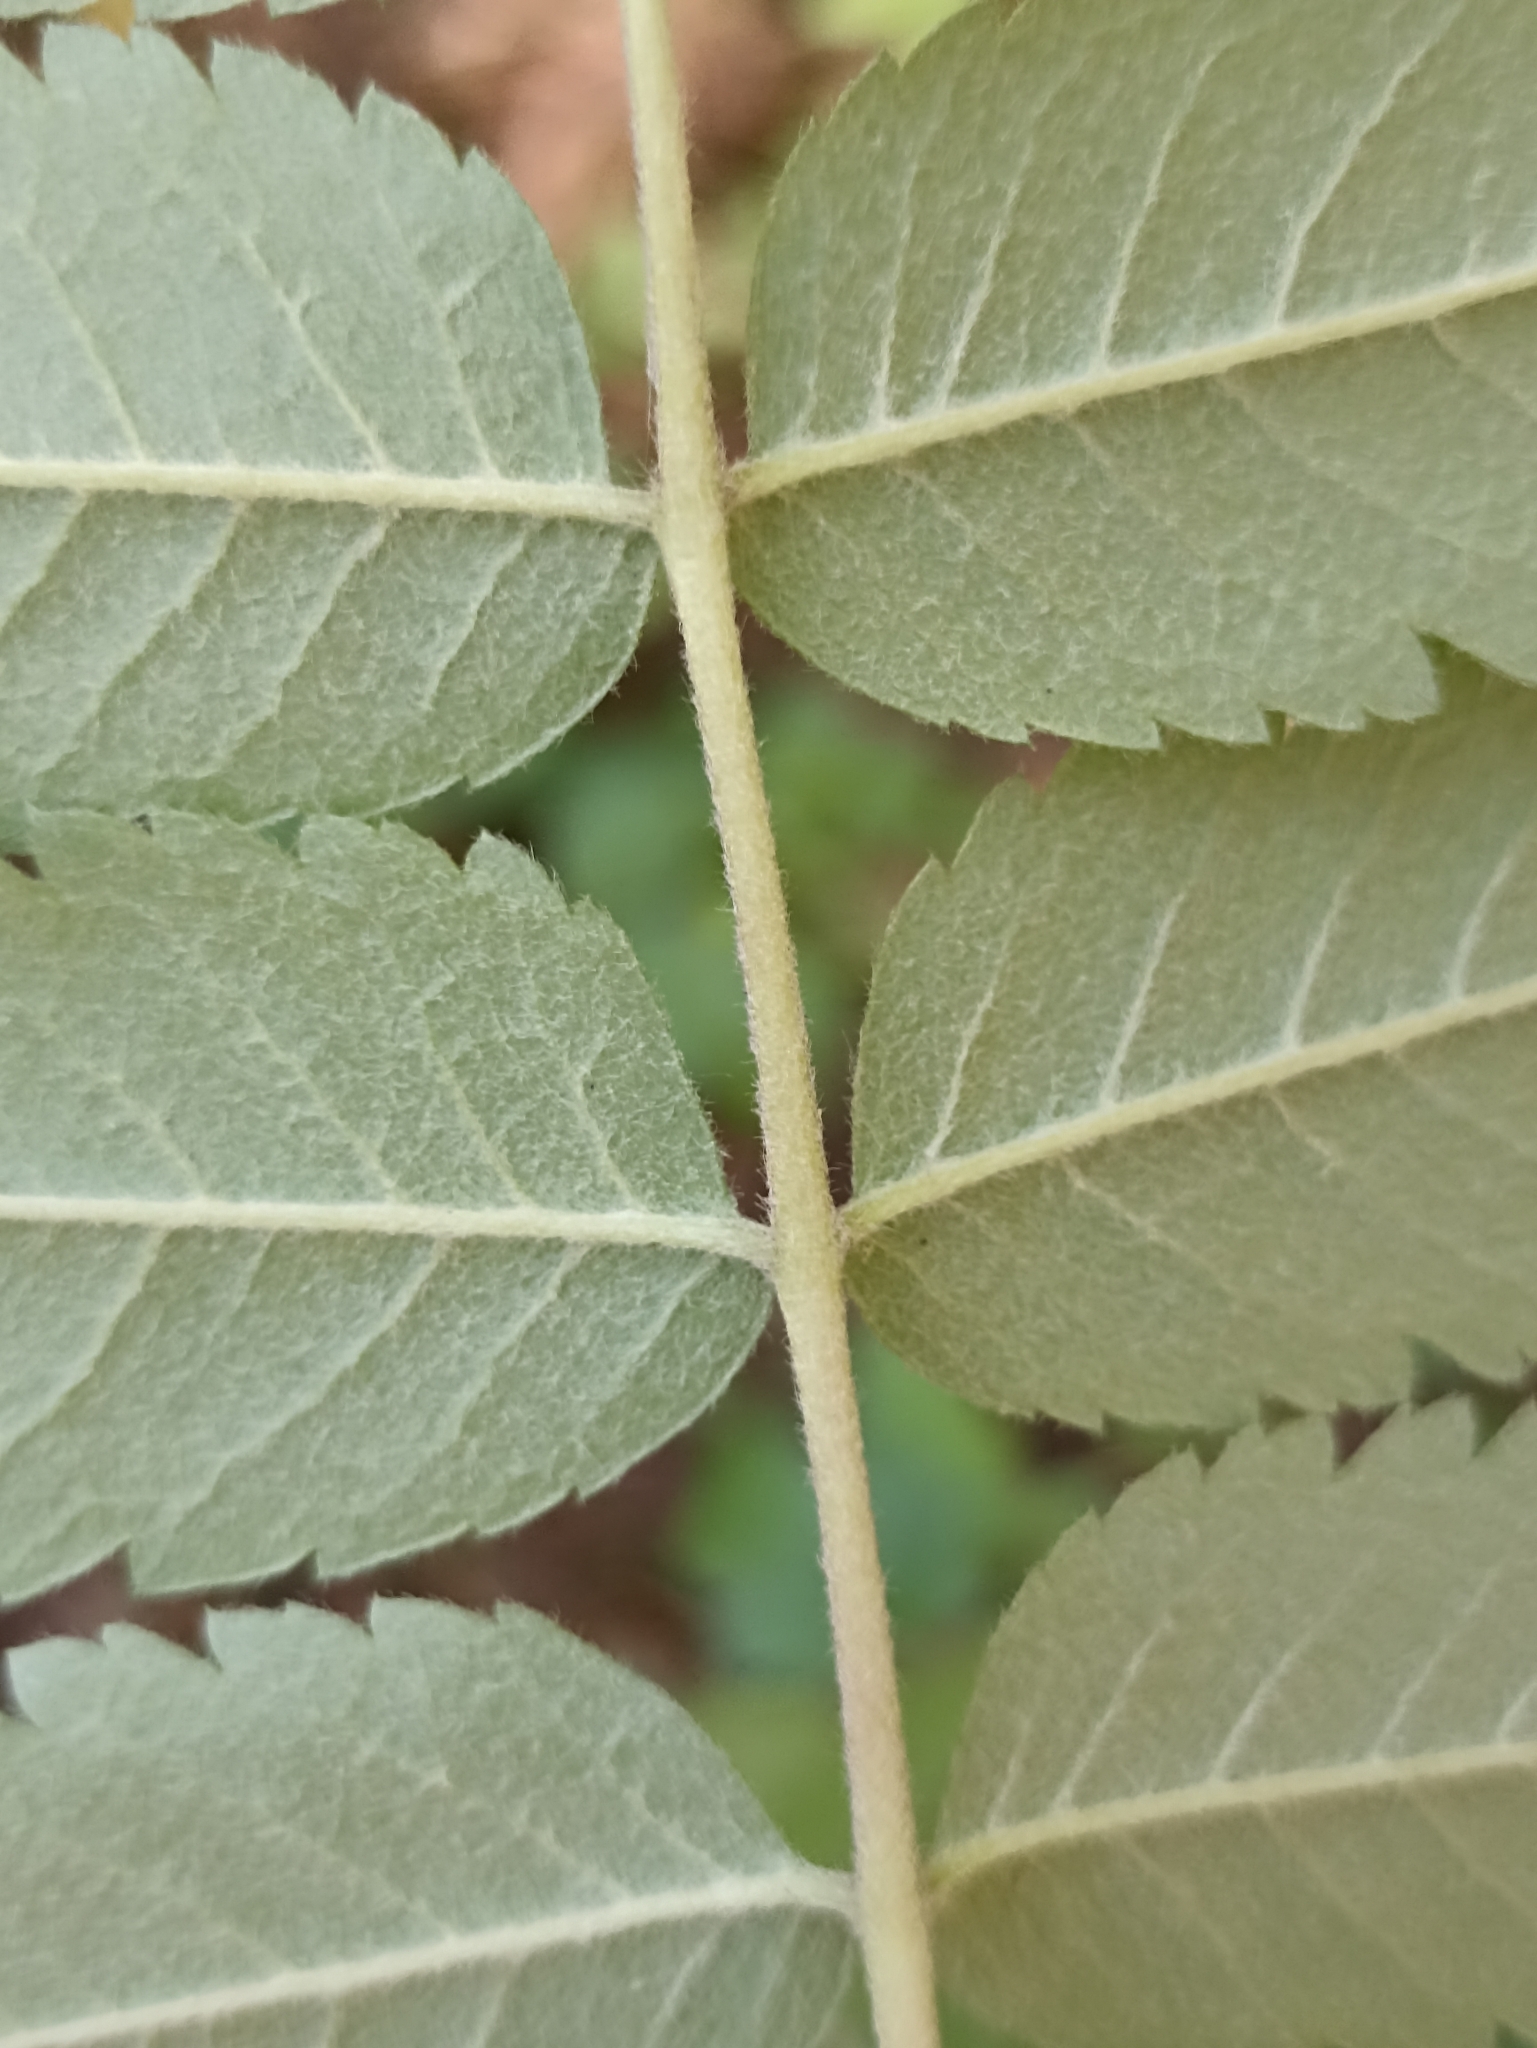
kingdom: Plantae
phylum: Tracheophyta
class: Magnoliopsida
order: Rosales
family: Rosaceae
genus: Sorbus
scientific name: Sorbus aucuparia
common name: Rowan
